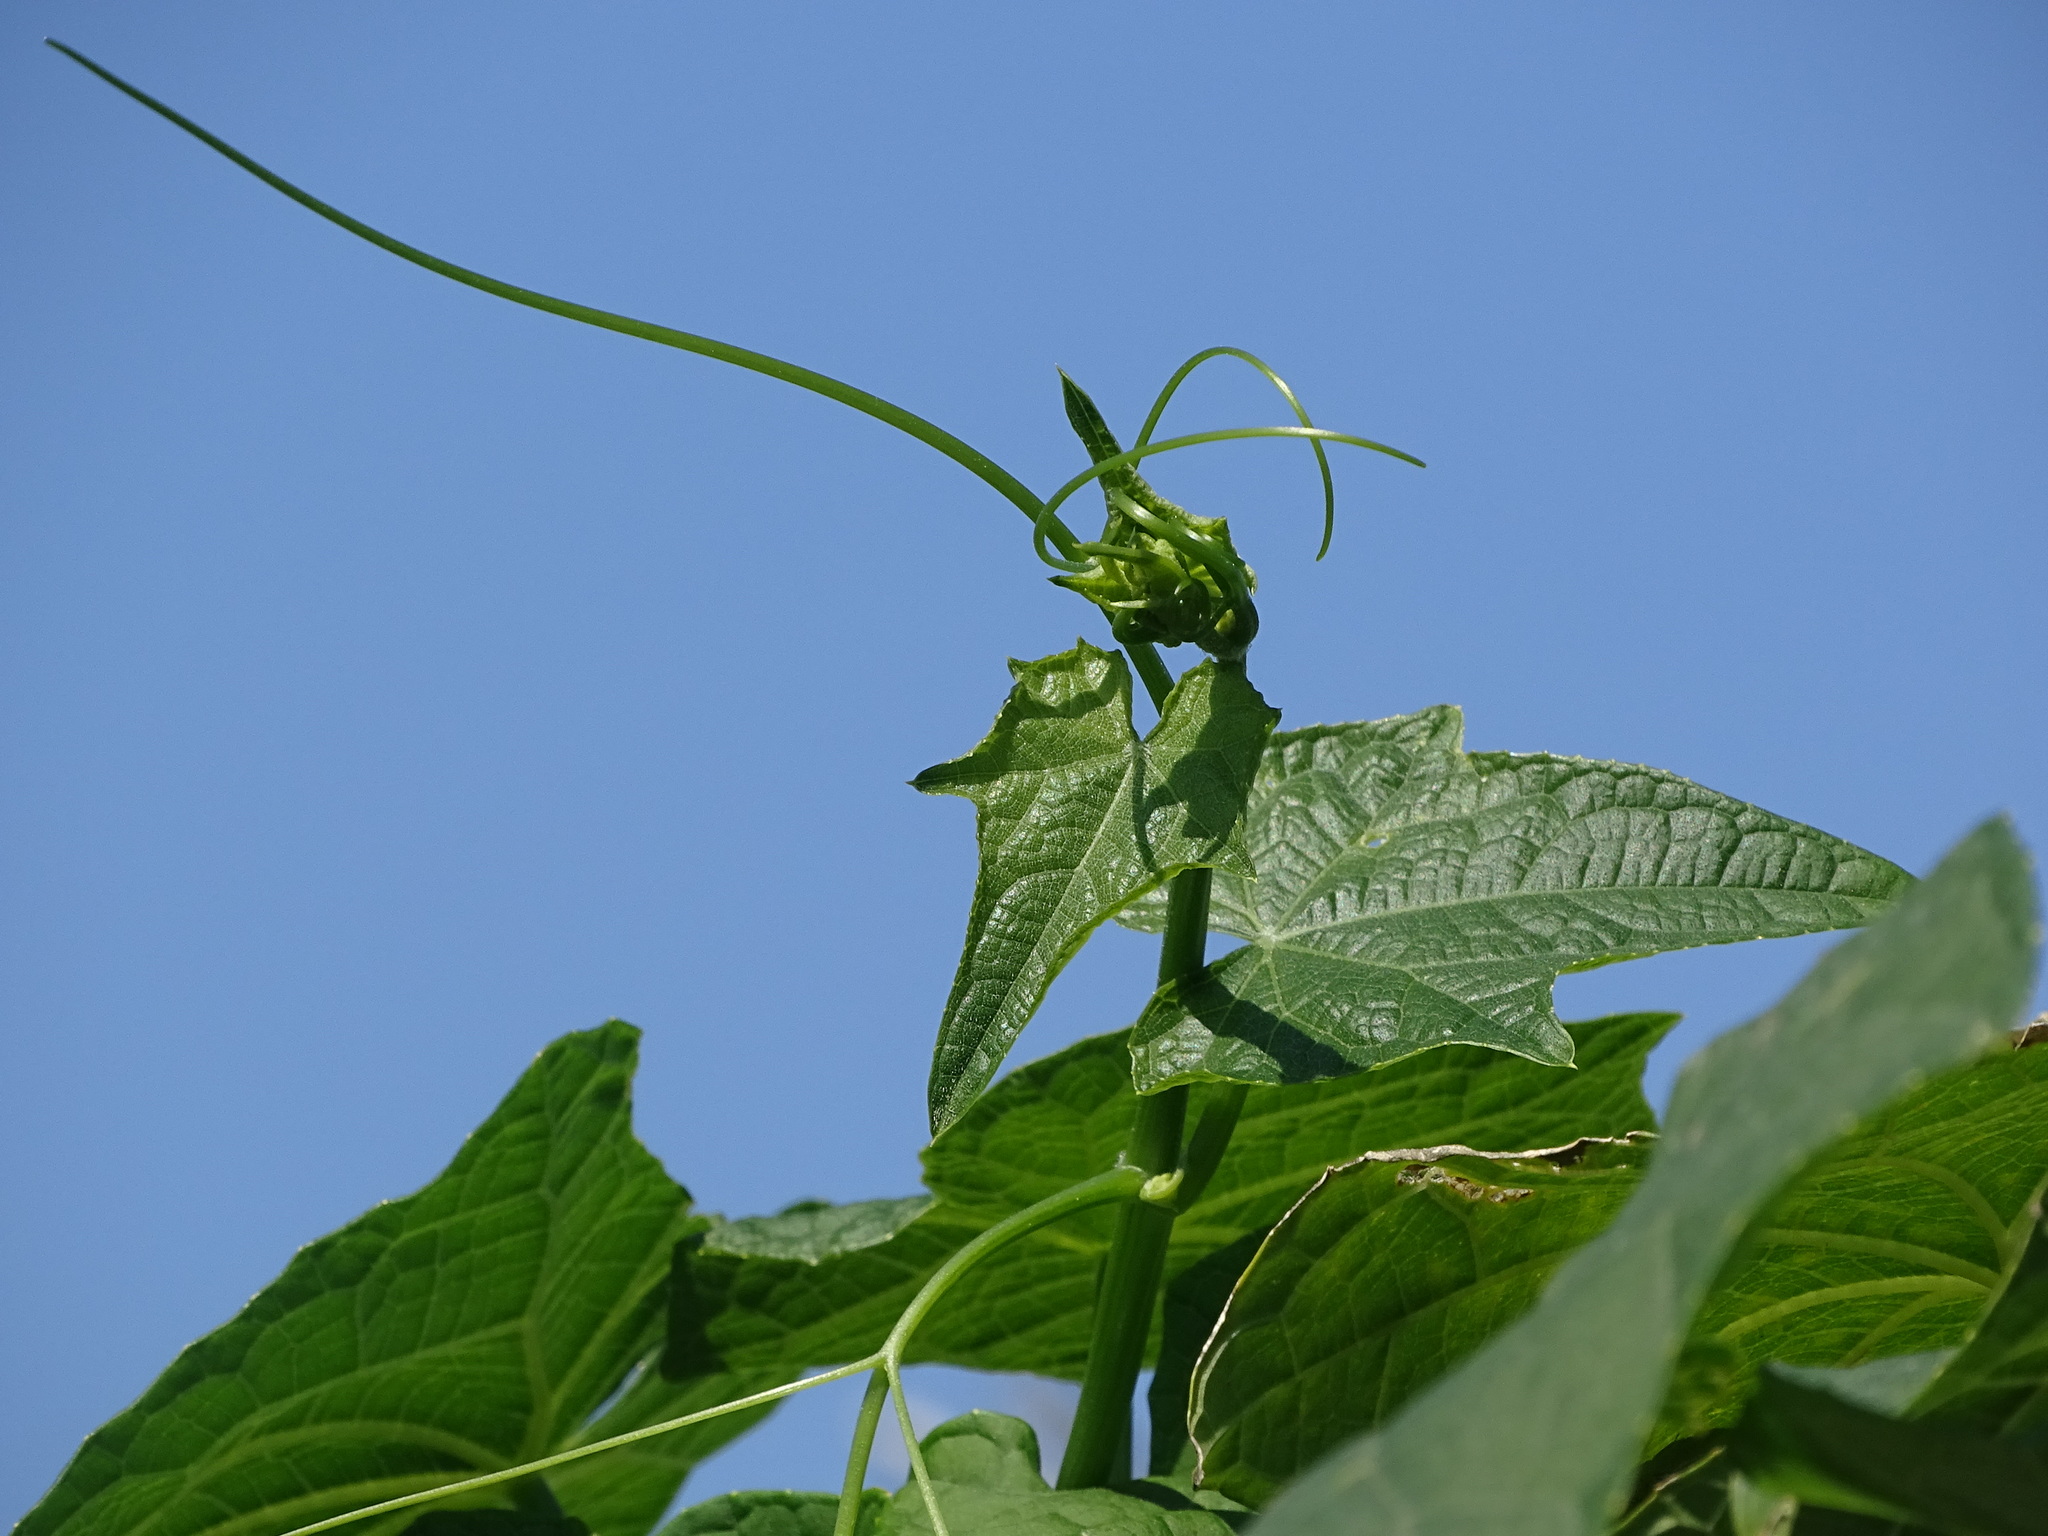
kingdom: Plantae
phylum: Tracheophyta
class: Magnoliopsida
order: Cucurbitales
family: Cucurbitaceae
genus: Sechium
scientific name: Sechium edule
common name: Chayote
